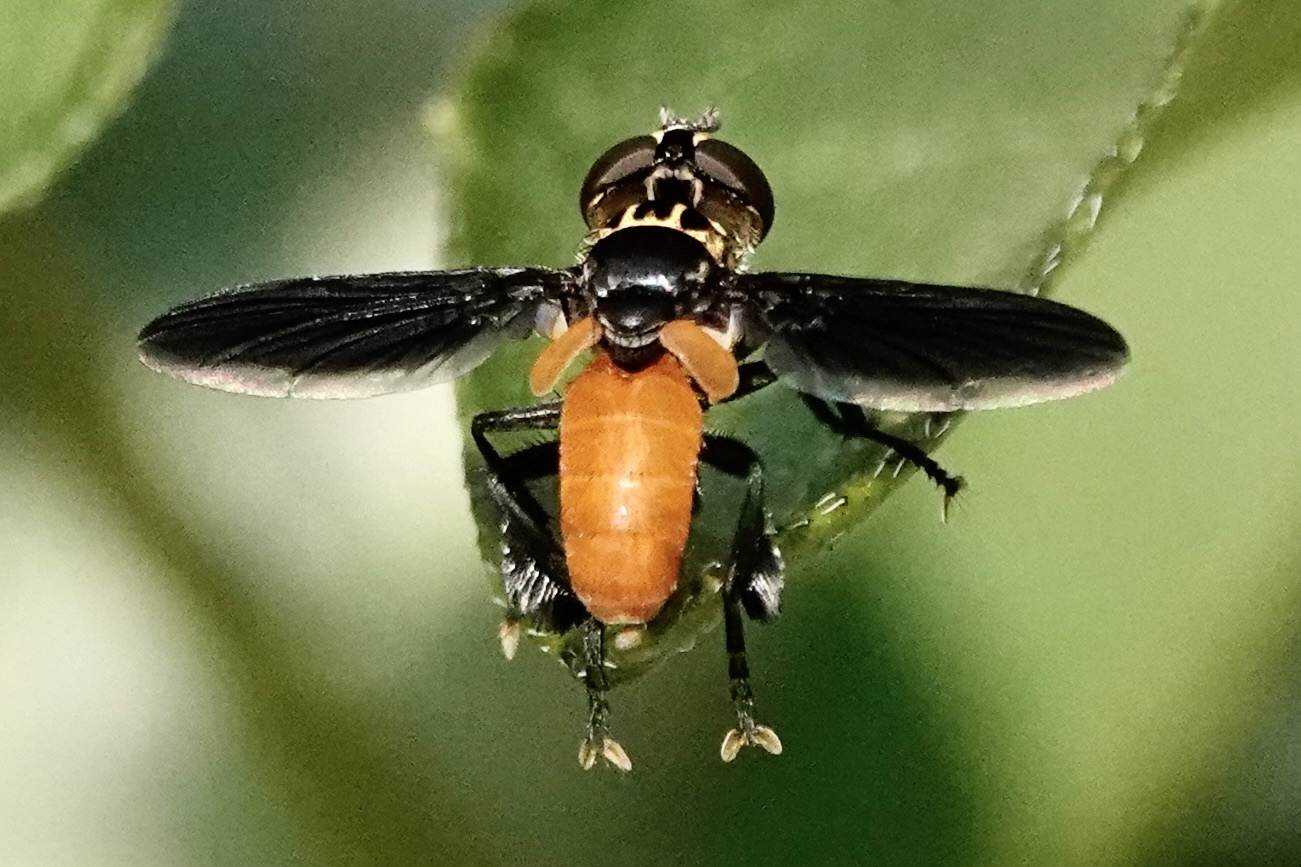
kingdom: Animalia
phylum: Arthropoda
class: Insecta
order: Diptera
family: Tachinidae
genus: Trichopoda
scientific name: Trichopoda pennipes
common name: Tachinid fly
